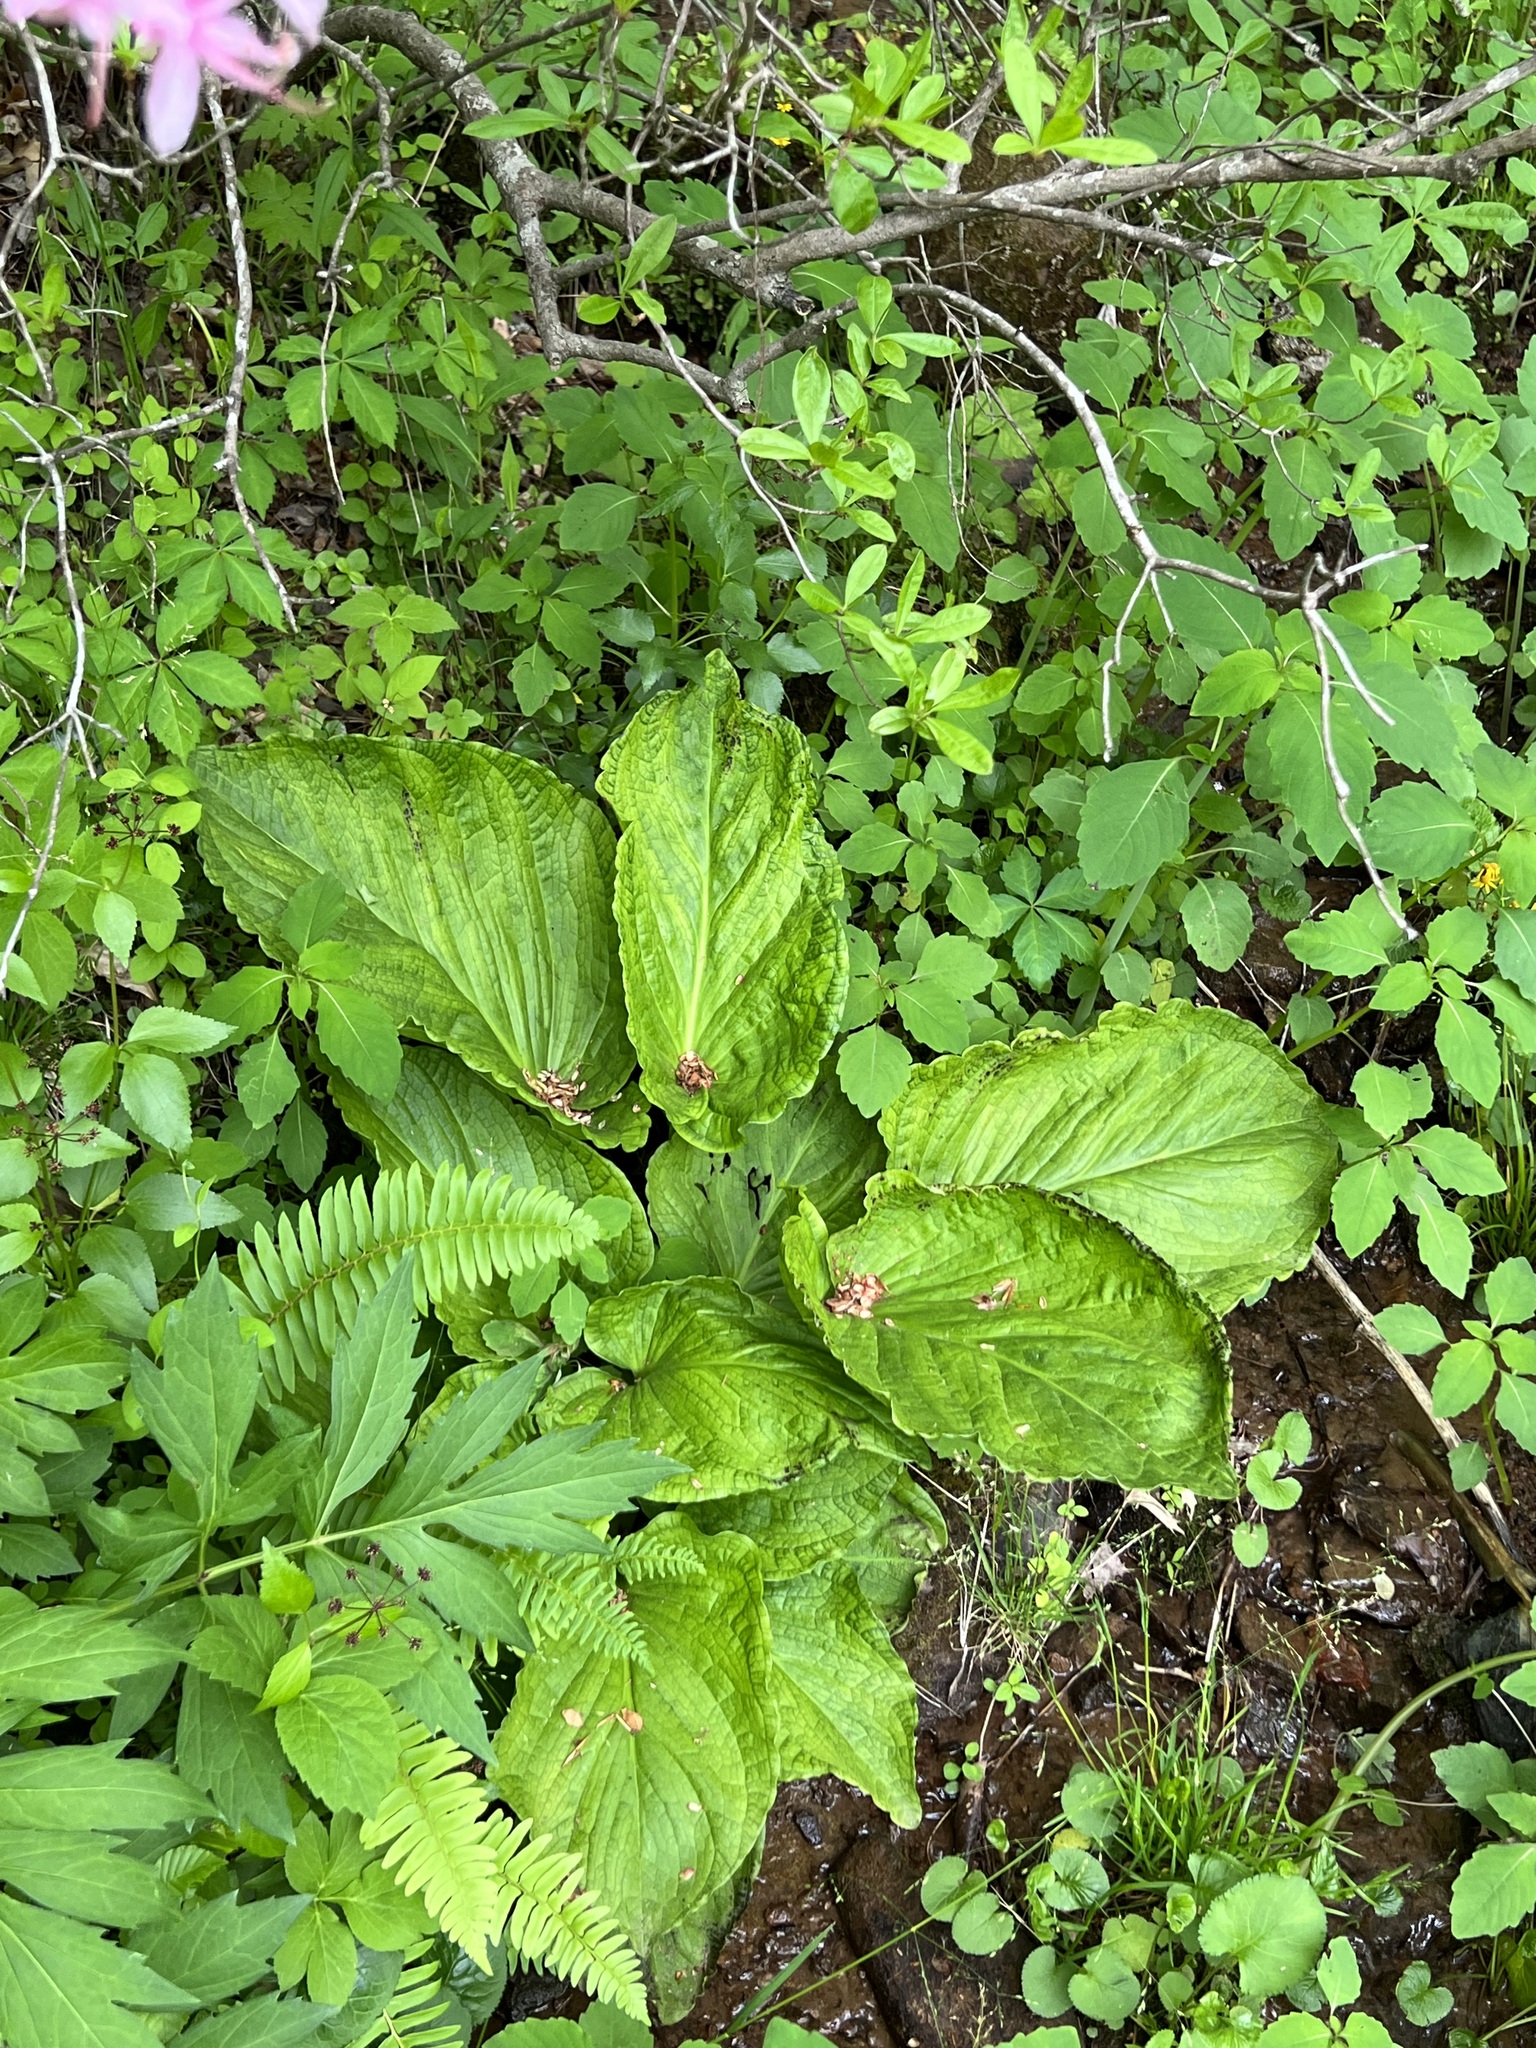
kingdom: Plantae
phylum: Tracheophyta
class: Liliopsida
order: Alismatales
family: Araceae
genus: Symplocarpus
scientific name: Symplocarpus foetidus
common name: Eastern skunk cabbage
